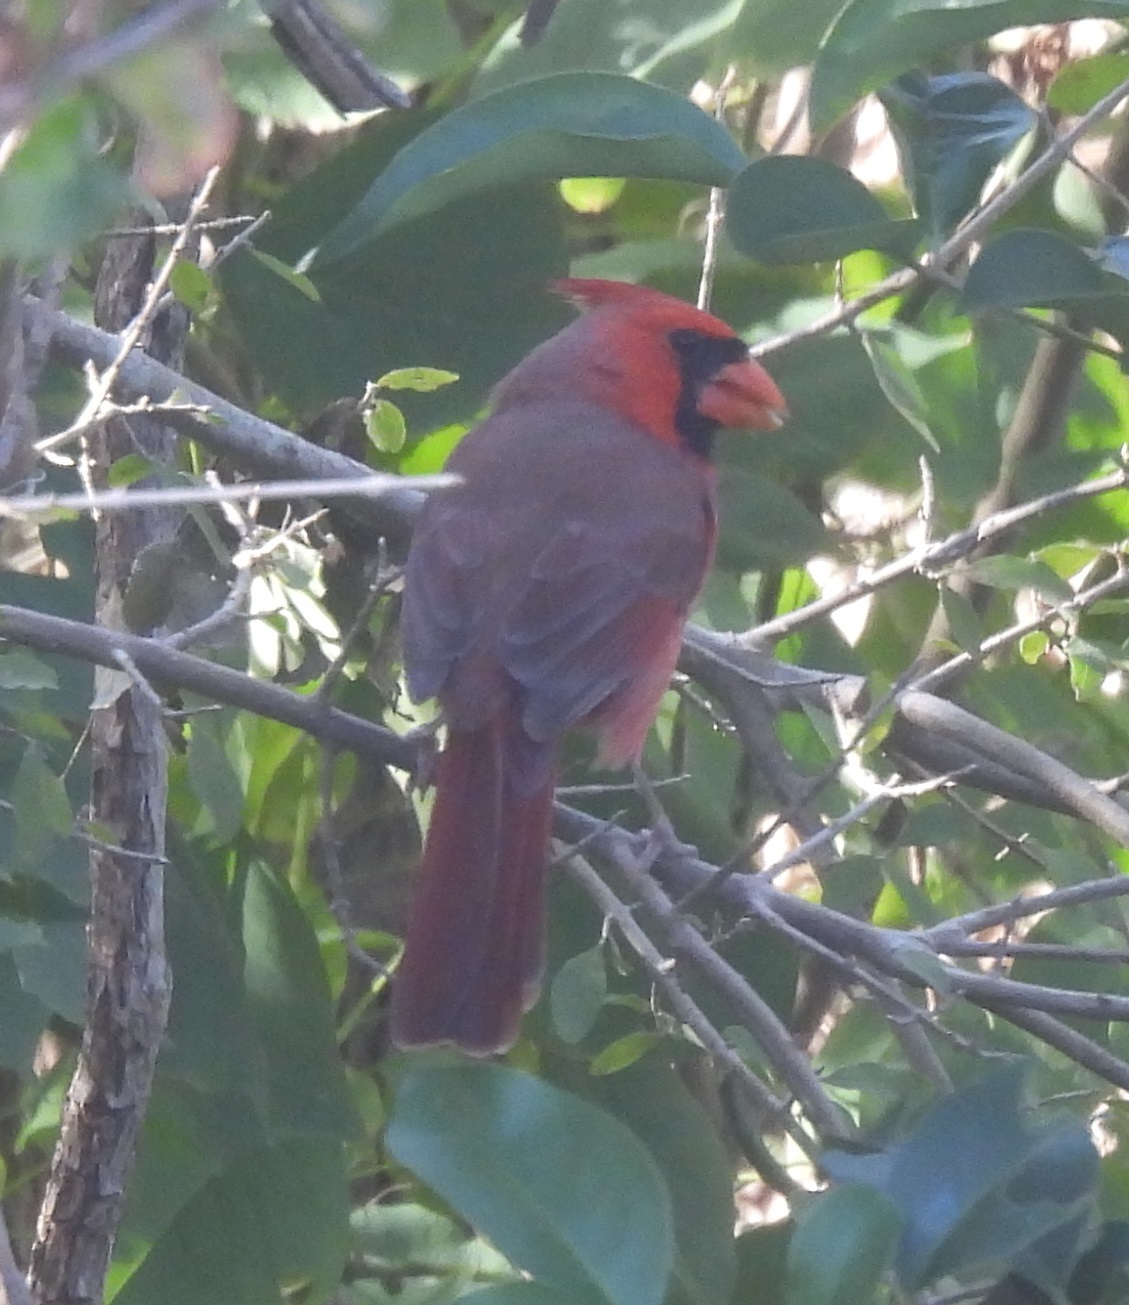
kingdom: Animalia
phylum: Chordata
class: Aves
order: Passeriformes
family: Cardinalidae
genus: Cardinalis
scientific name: Cardinalis cardinalis
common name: Northern cardinal
